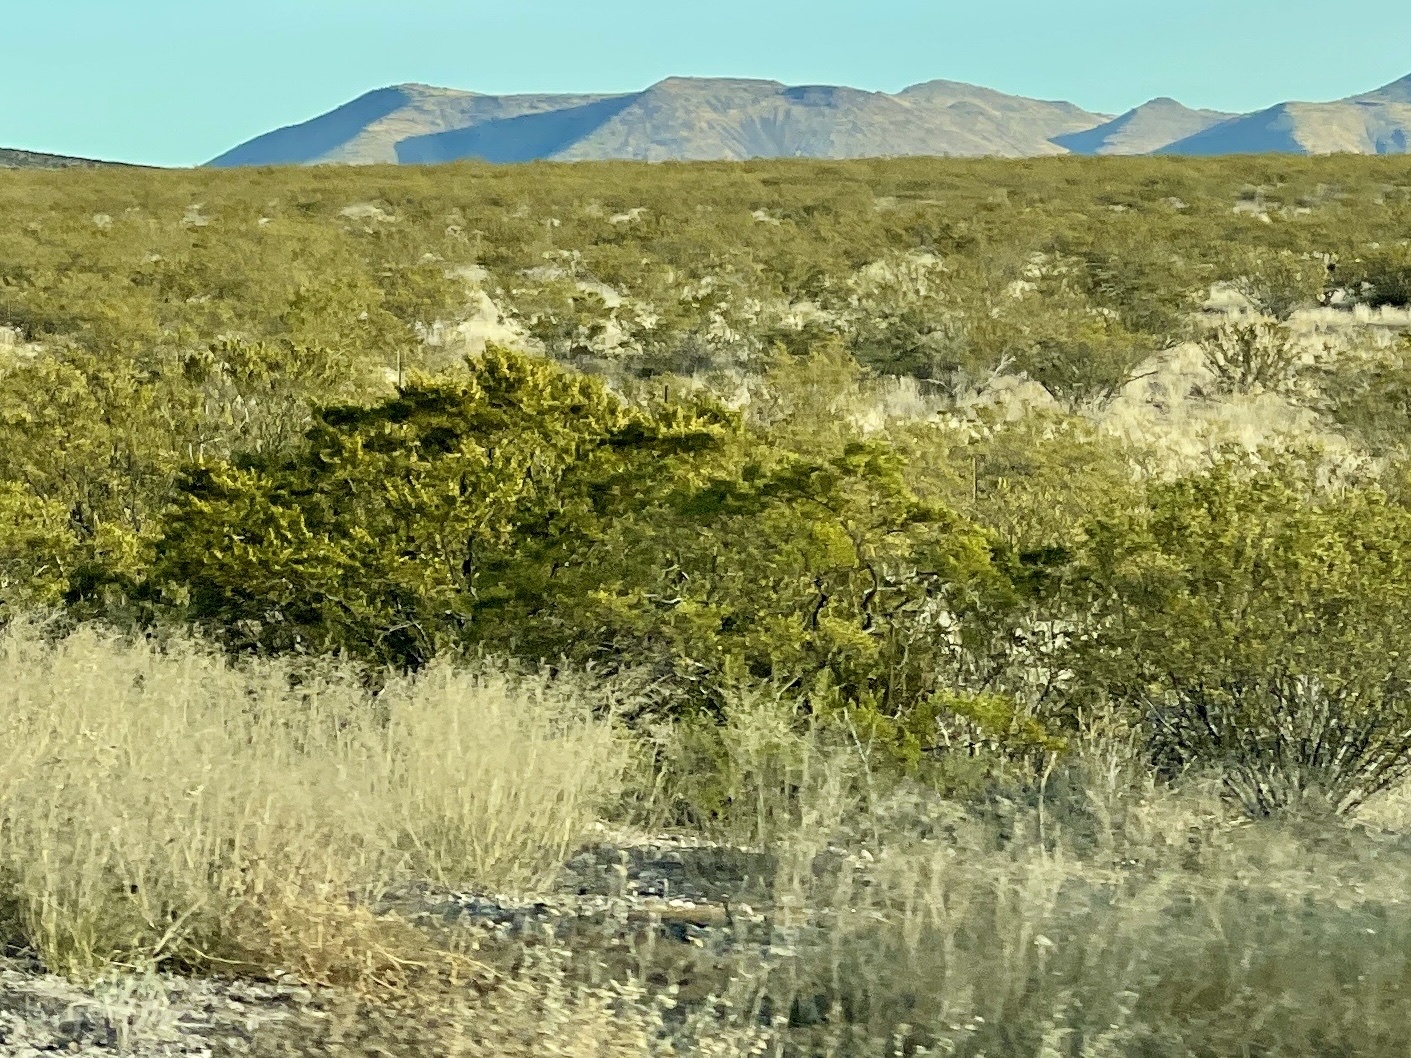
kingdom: Plantae
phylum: Tracheophyta
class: Magnoliopsida
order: Zygophyllales
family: Zygophyllaceae
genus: Larrea
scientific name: Larrea tridentata
